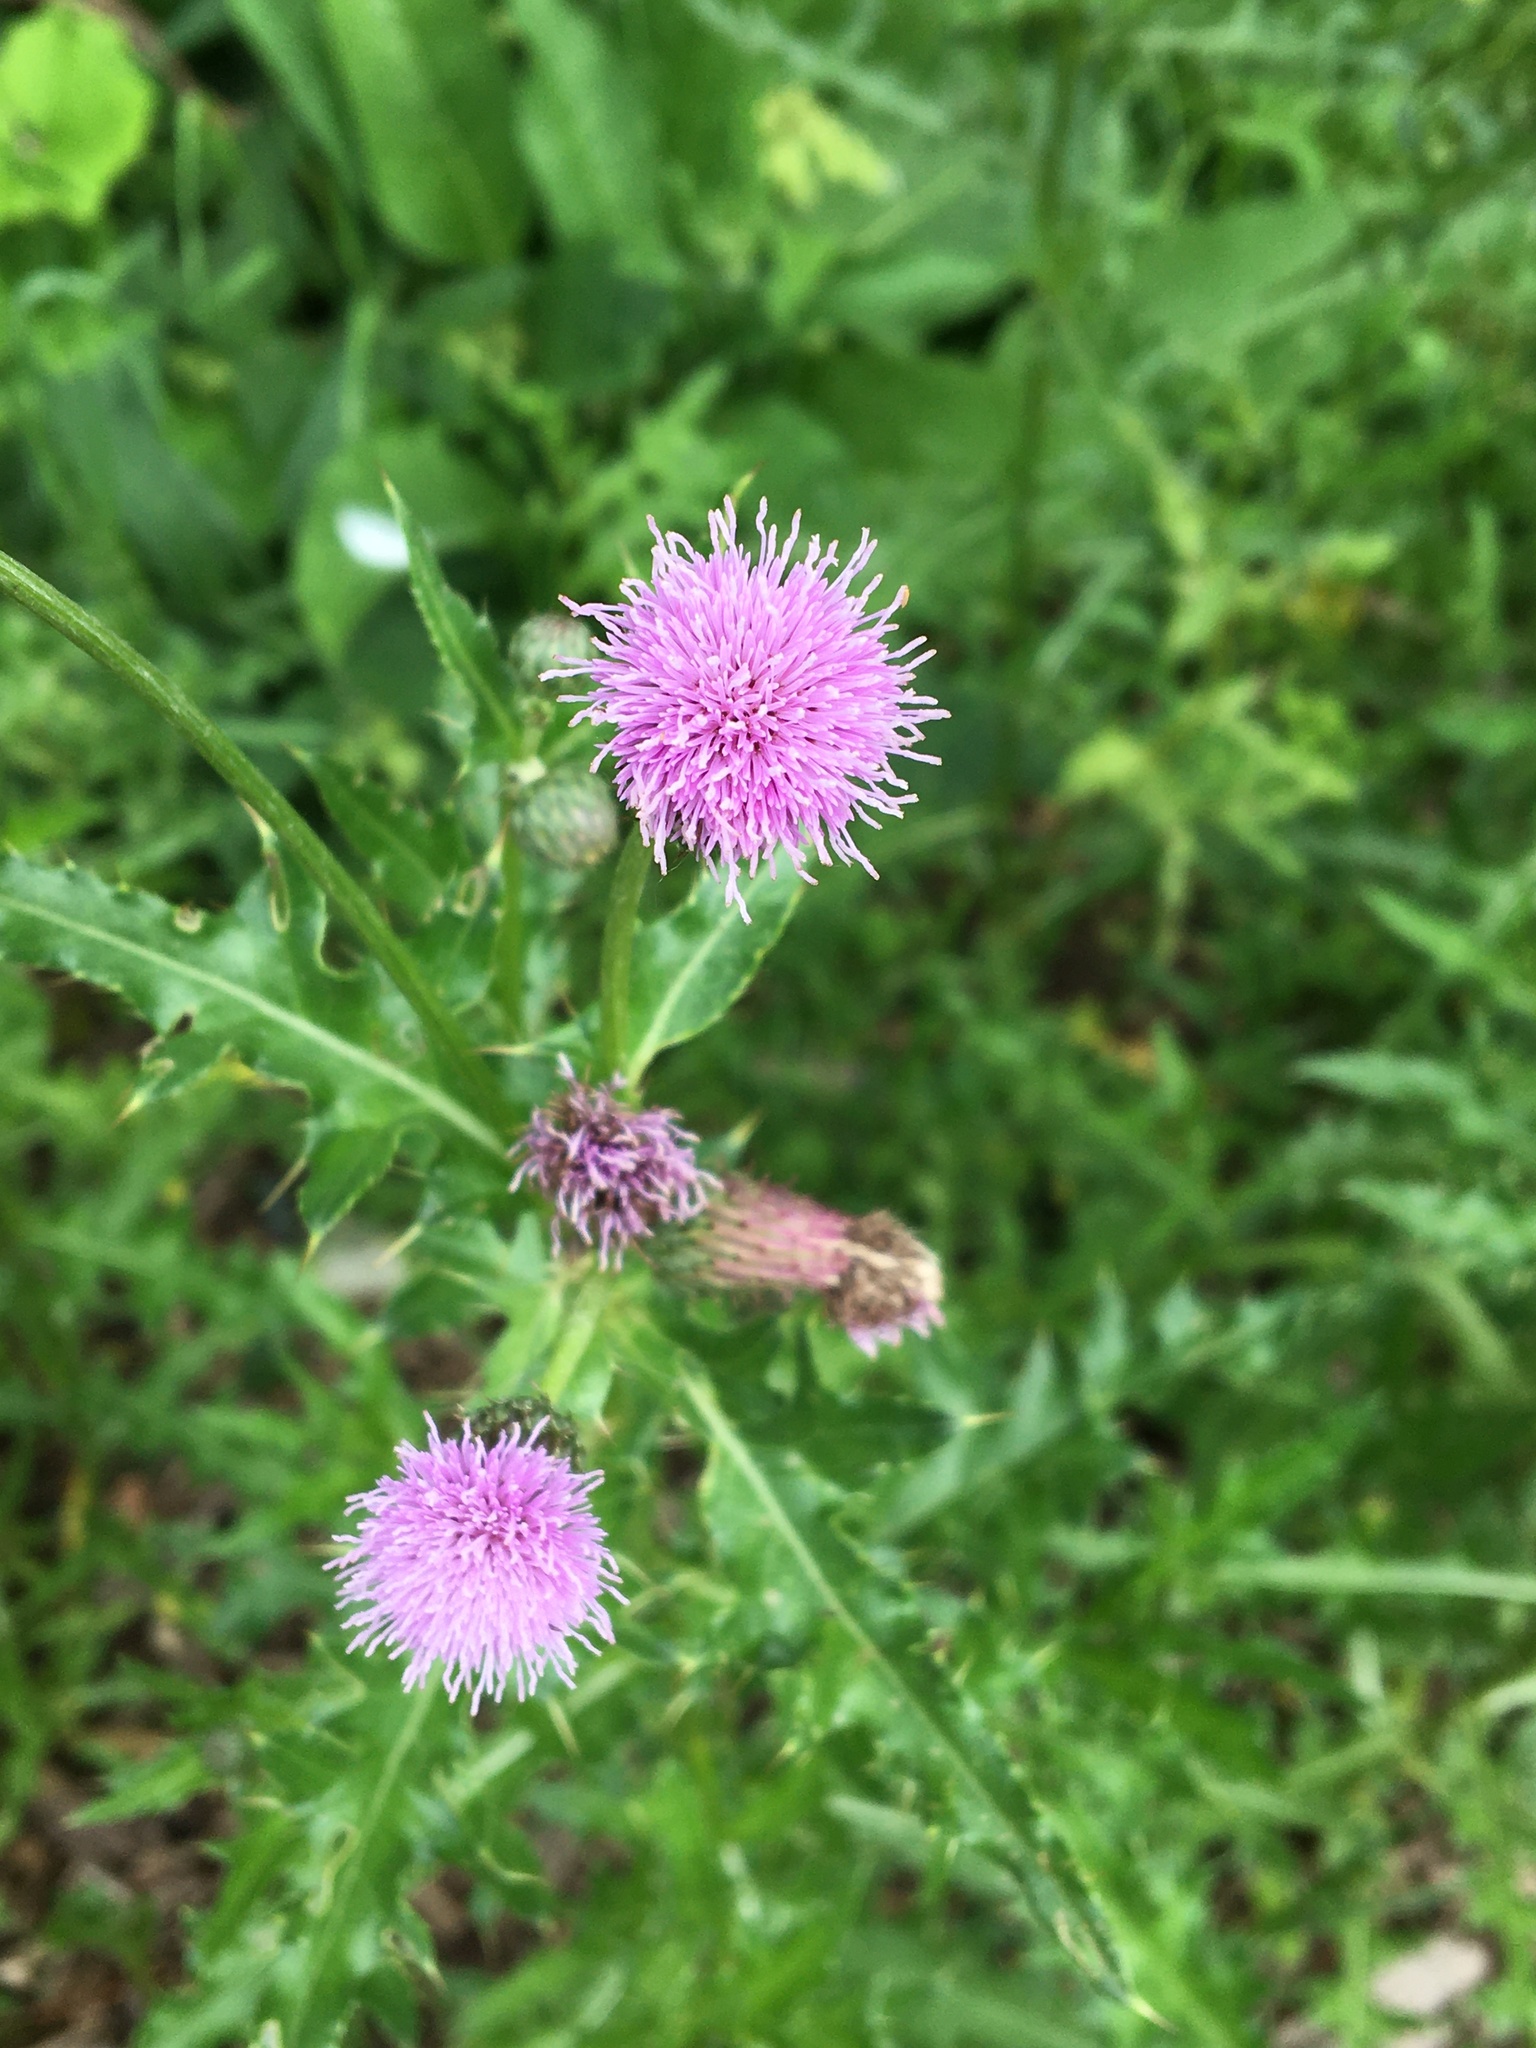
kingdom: Plantae
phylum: Tracheophyta
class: Magnoliopsida
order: Asterales
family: Asteraceae
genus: Cirsium
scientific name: Cirsium arvense
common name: Creeping thistle
